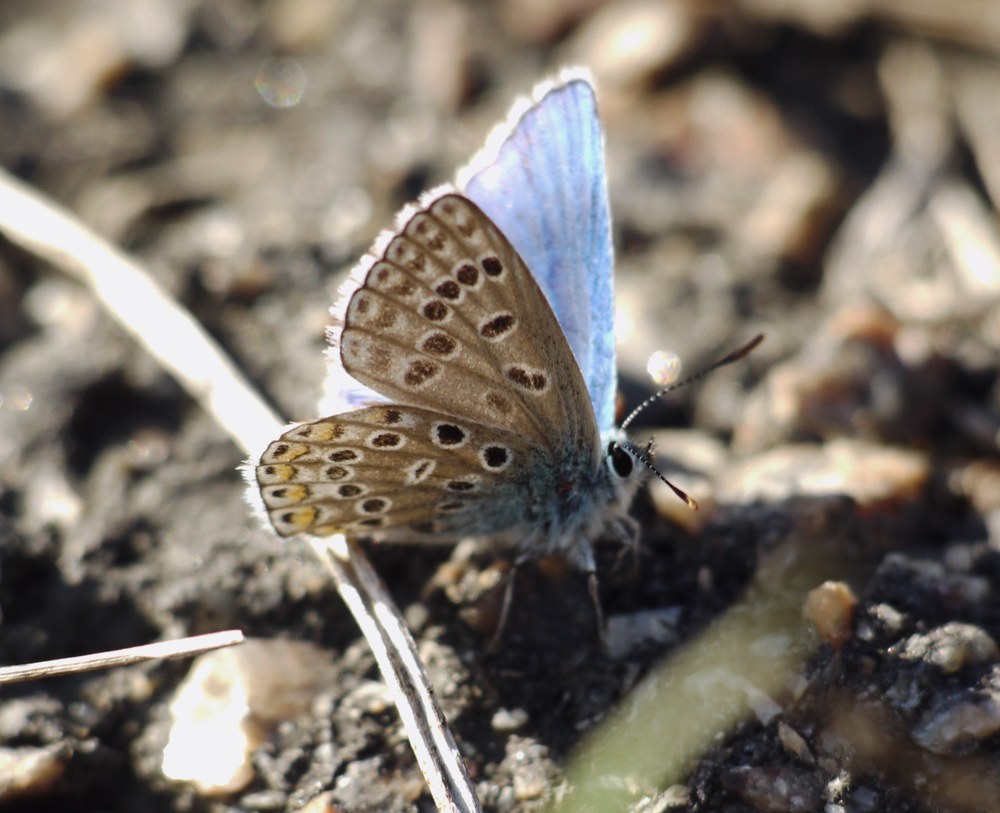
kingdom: Animalia
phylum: Arthropoda
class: Insecta
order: Lepidoptera
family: Lycaenidae
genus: Lysandra
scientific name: Lysandra bellargus
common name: Adonis blue
